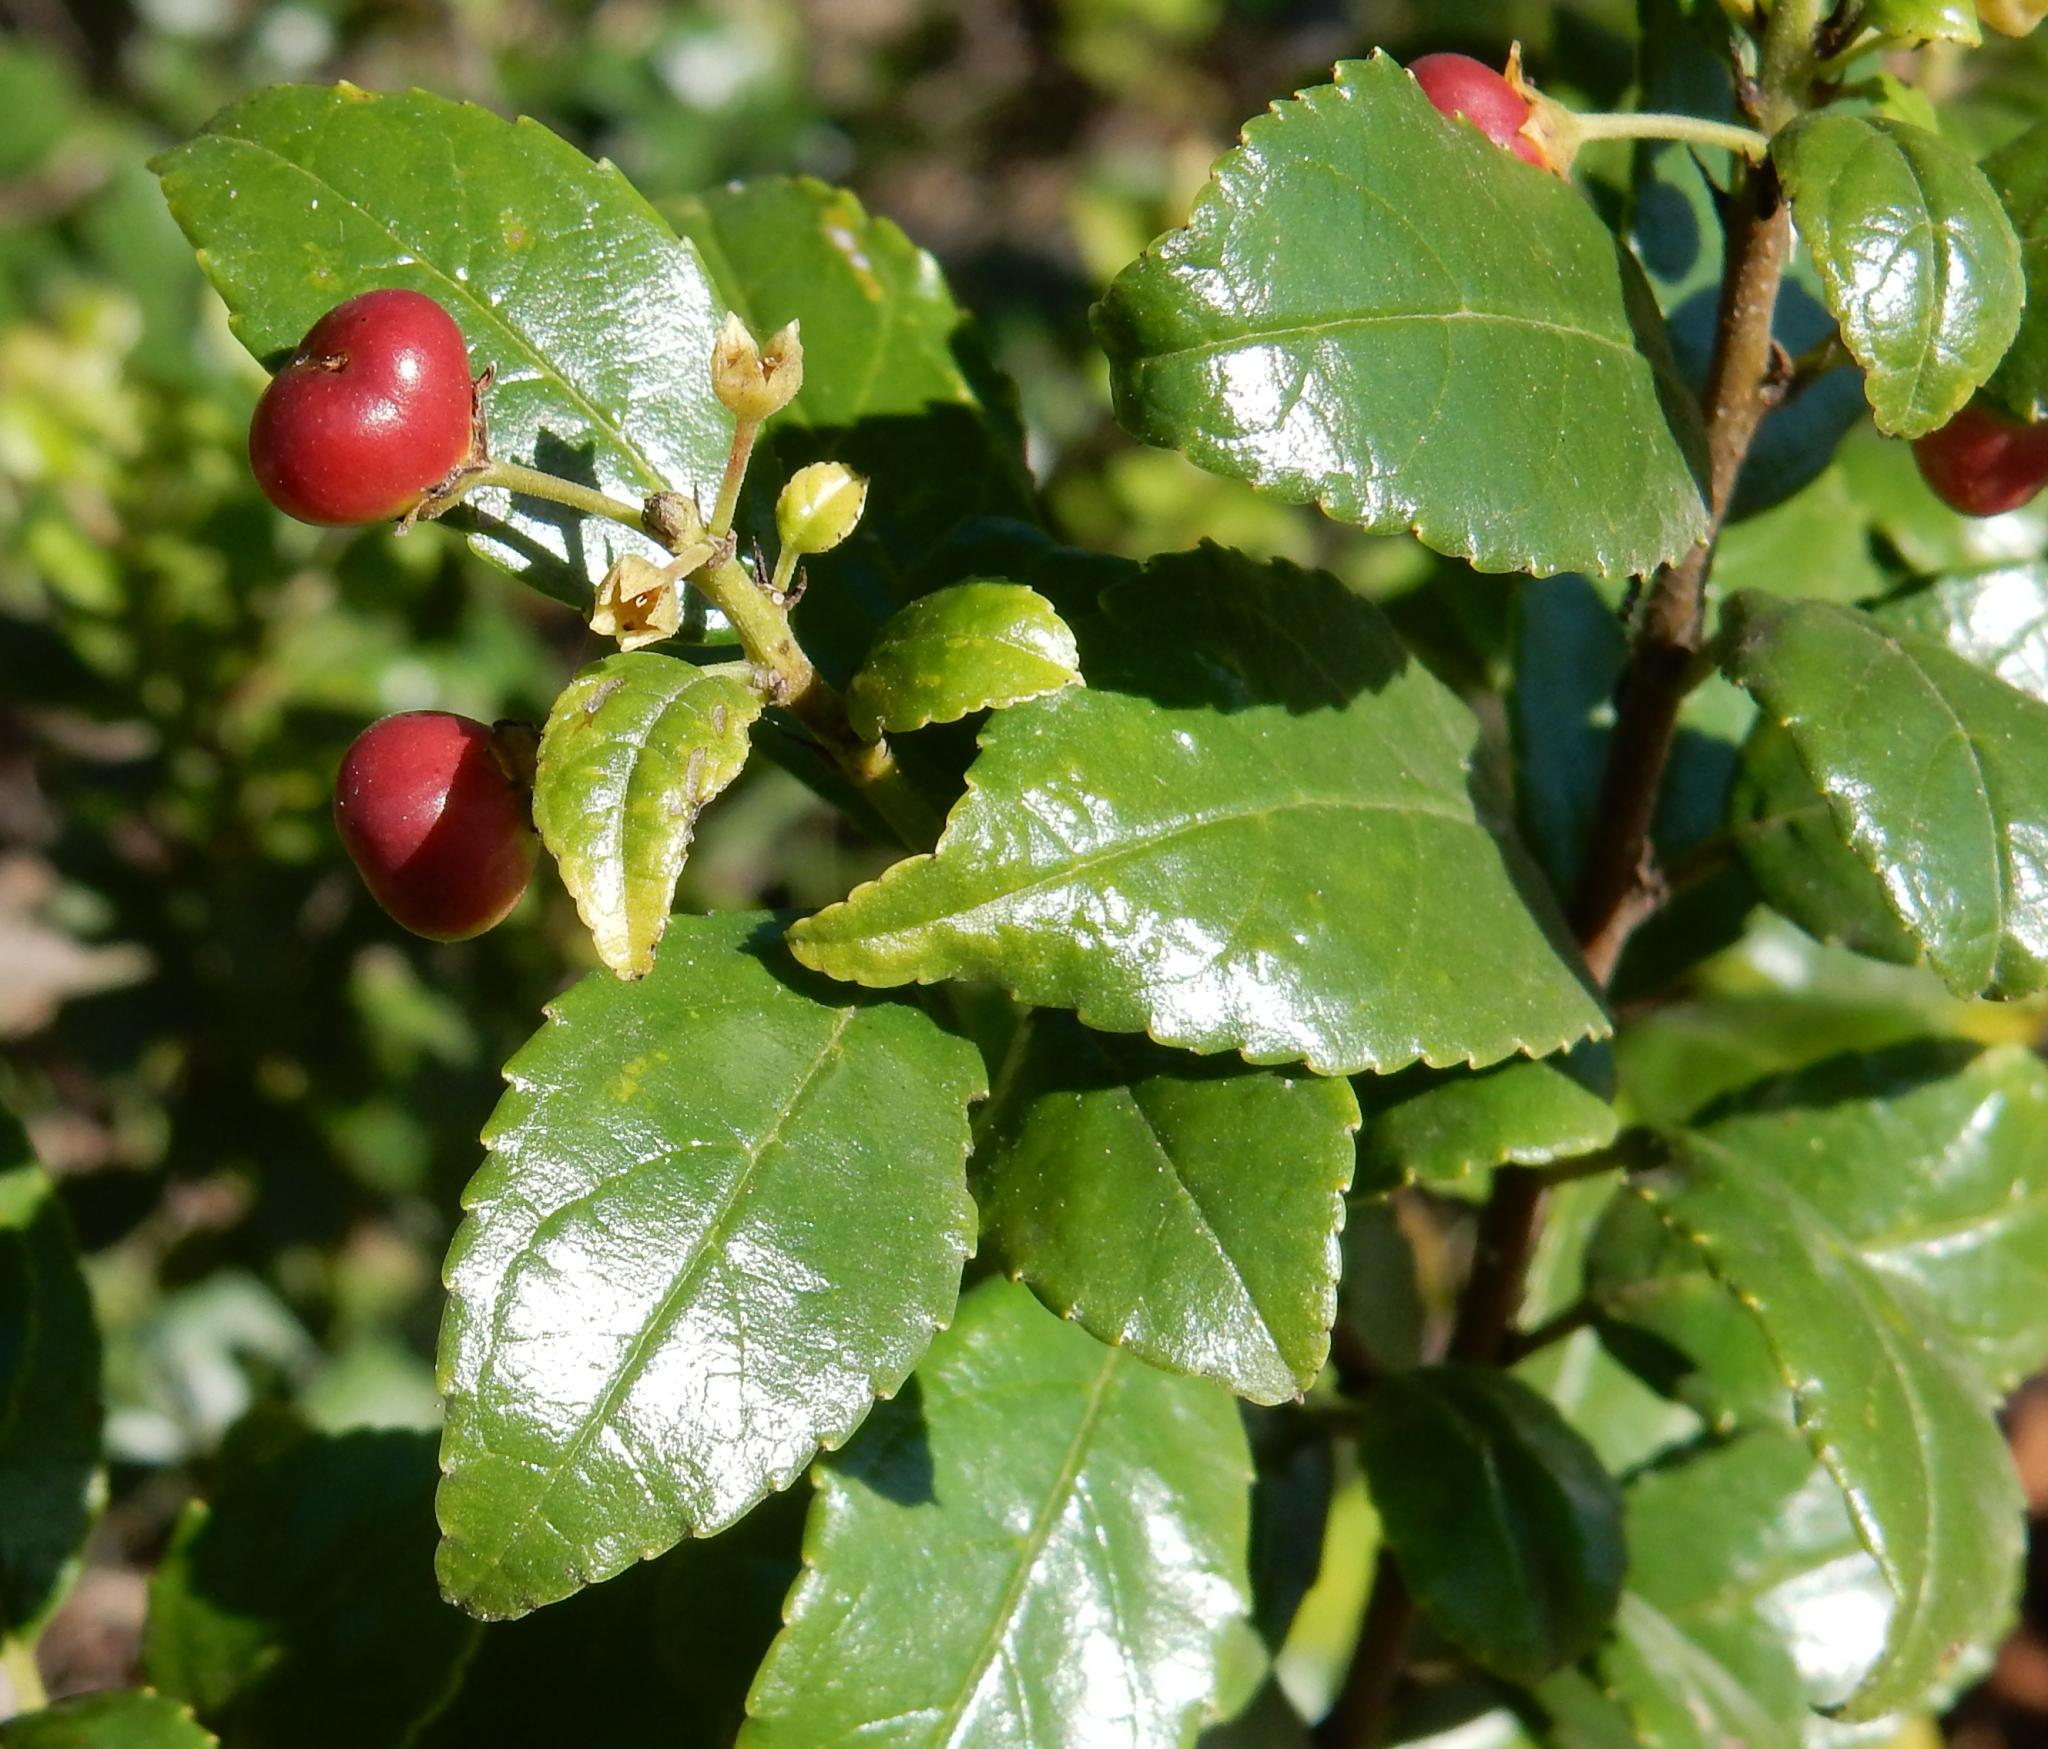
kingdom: Plantae
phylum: Tracheophyta
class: Magnoliopsida
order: Rosales
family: Rhamnaceae
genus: Rhamnus
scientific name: Rhamnus prinoides
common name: Dogwood
